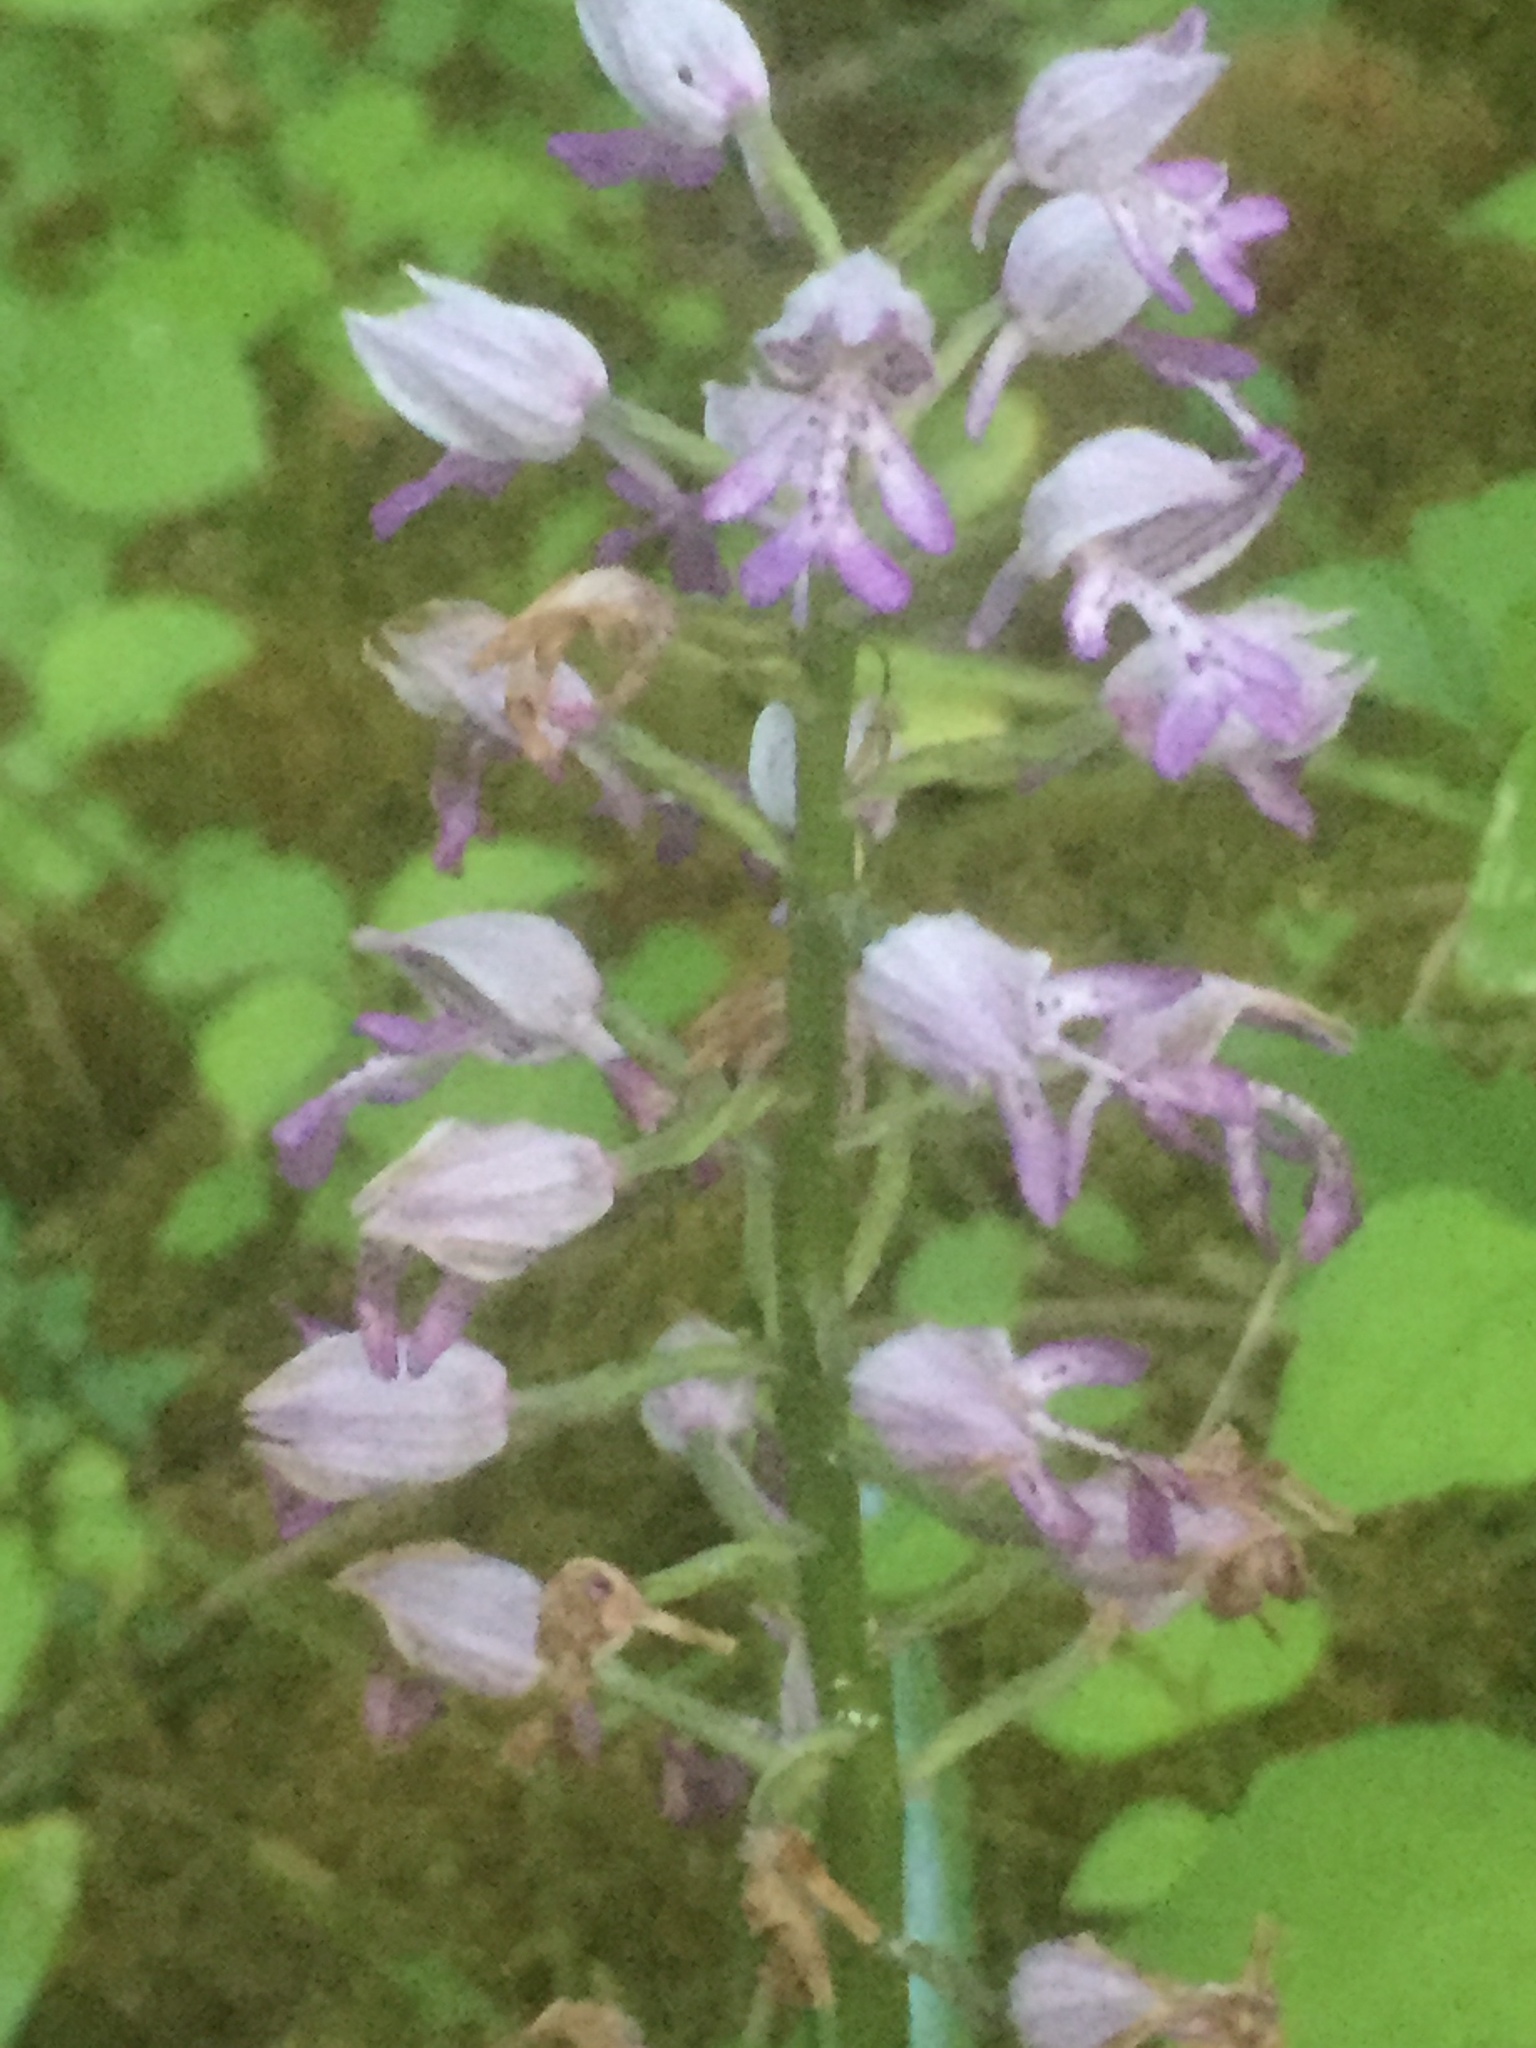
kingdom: Plantae
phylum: Tracheophyta
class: Liliopsida
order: Asparagales
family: Orchidaceae
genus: Orchis
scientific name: Orchis militaris
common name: Military orchid
